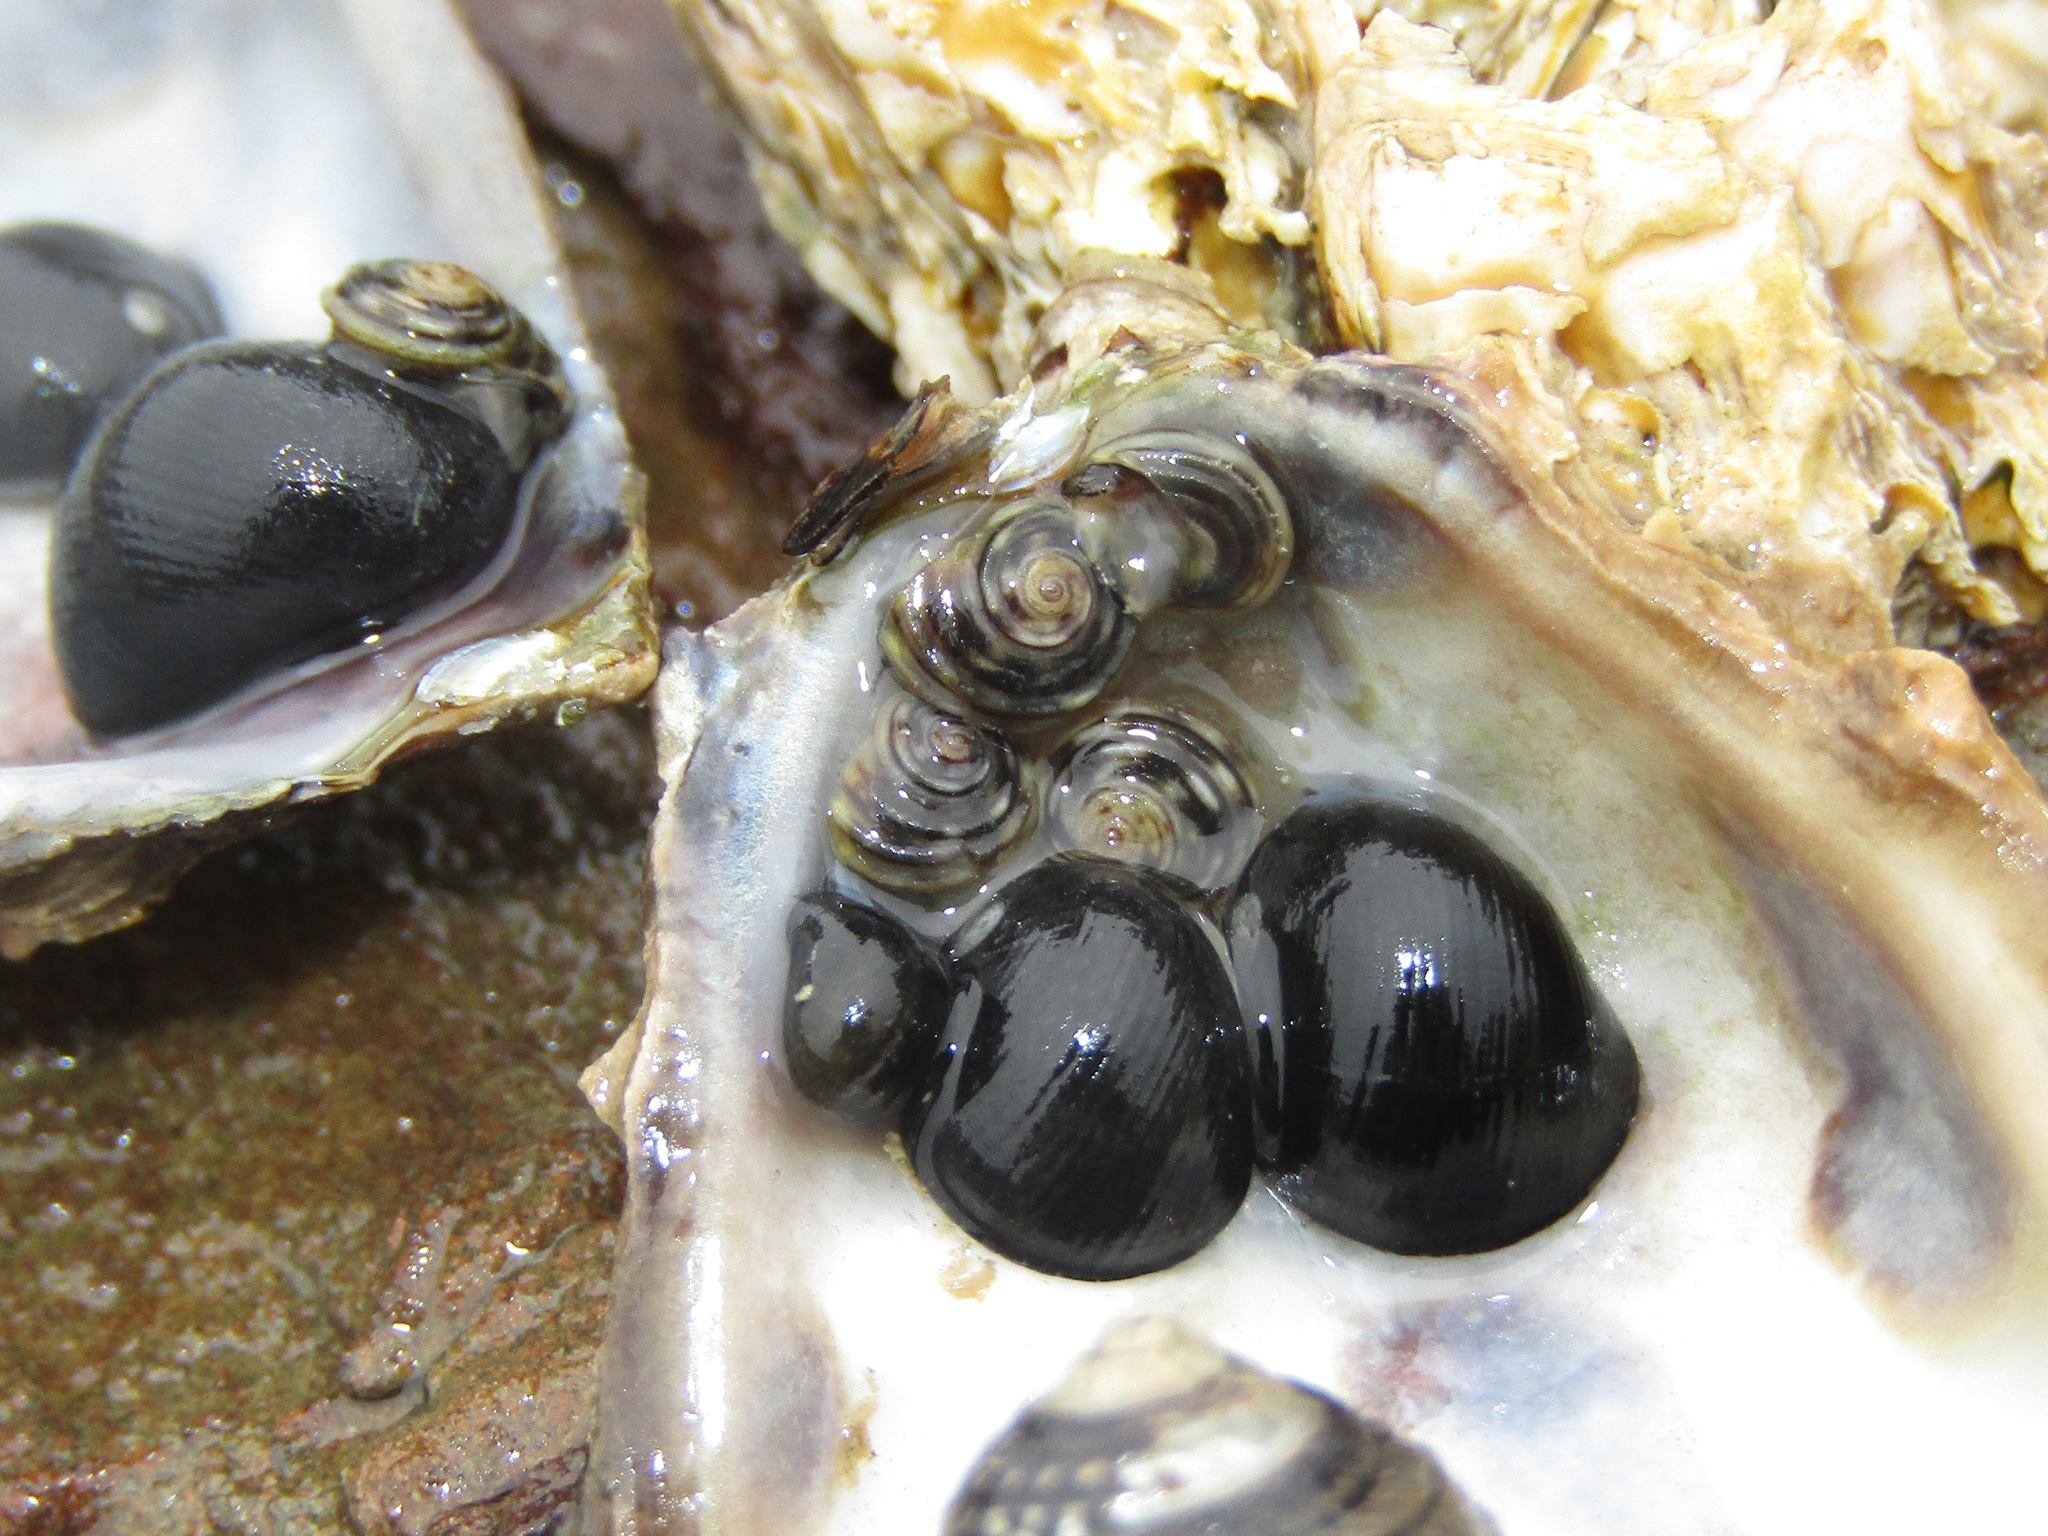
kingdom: Animalia
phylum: Mollusca
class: Gastropoda
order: Littorinimorpha
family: Littorinidae
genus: Risellopsis
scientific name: Risellopsis varia
